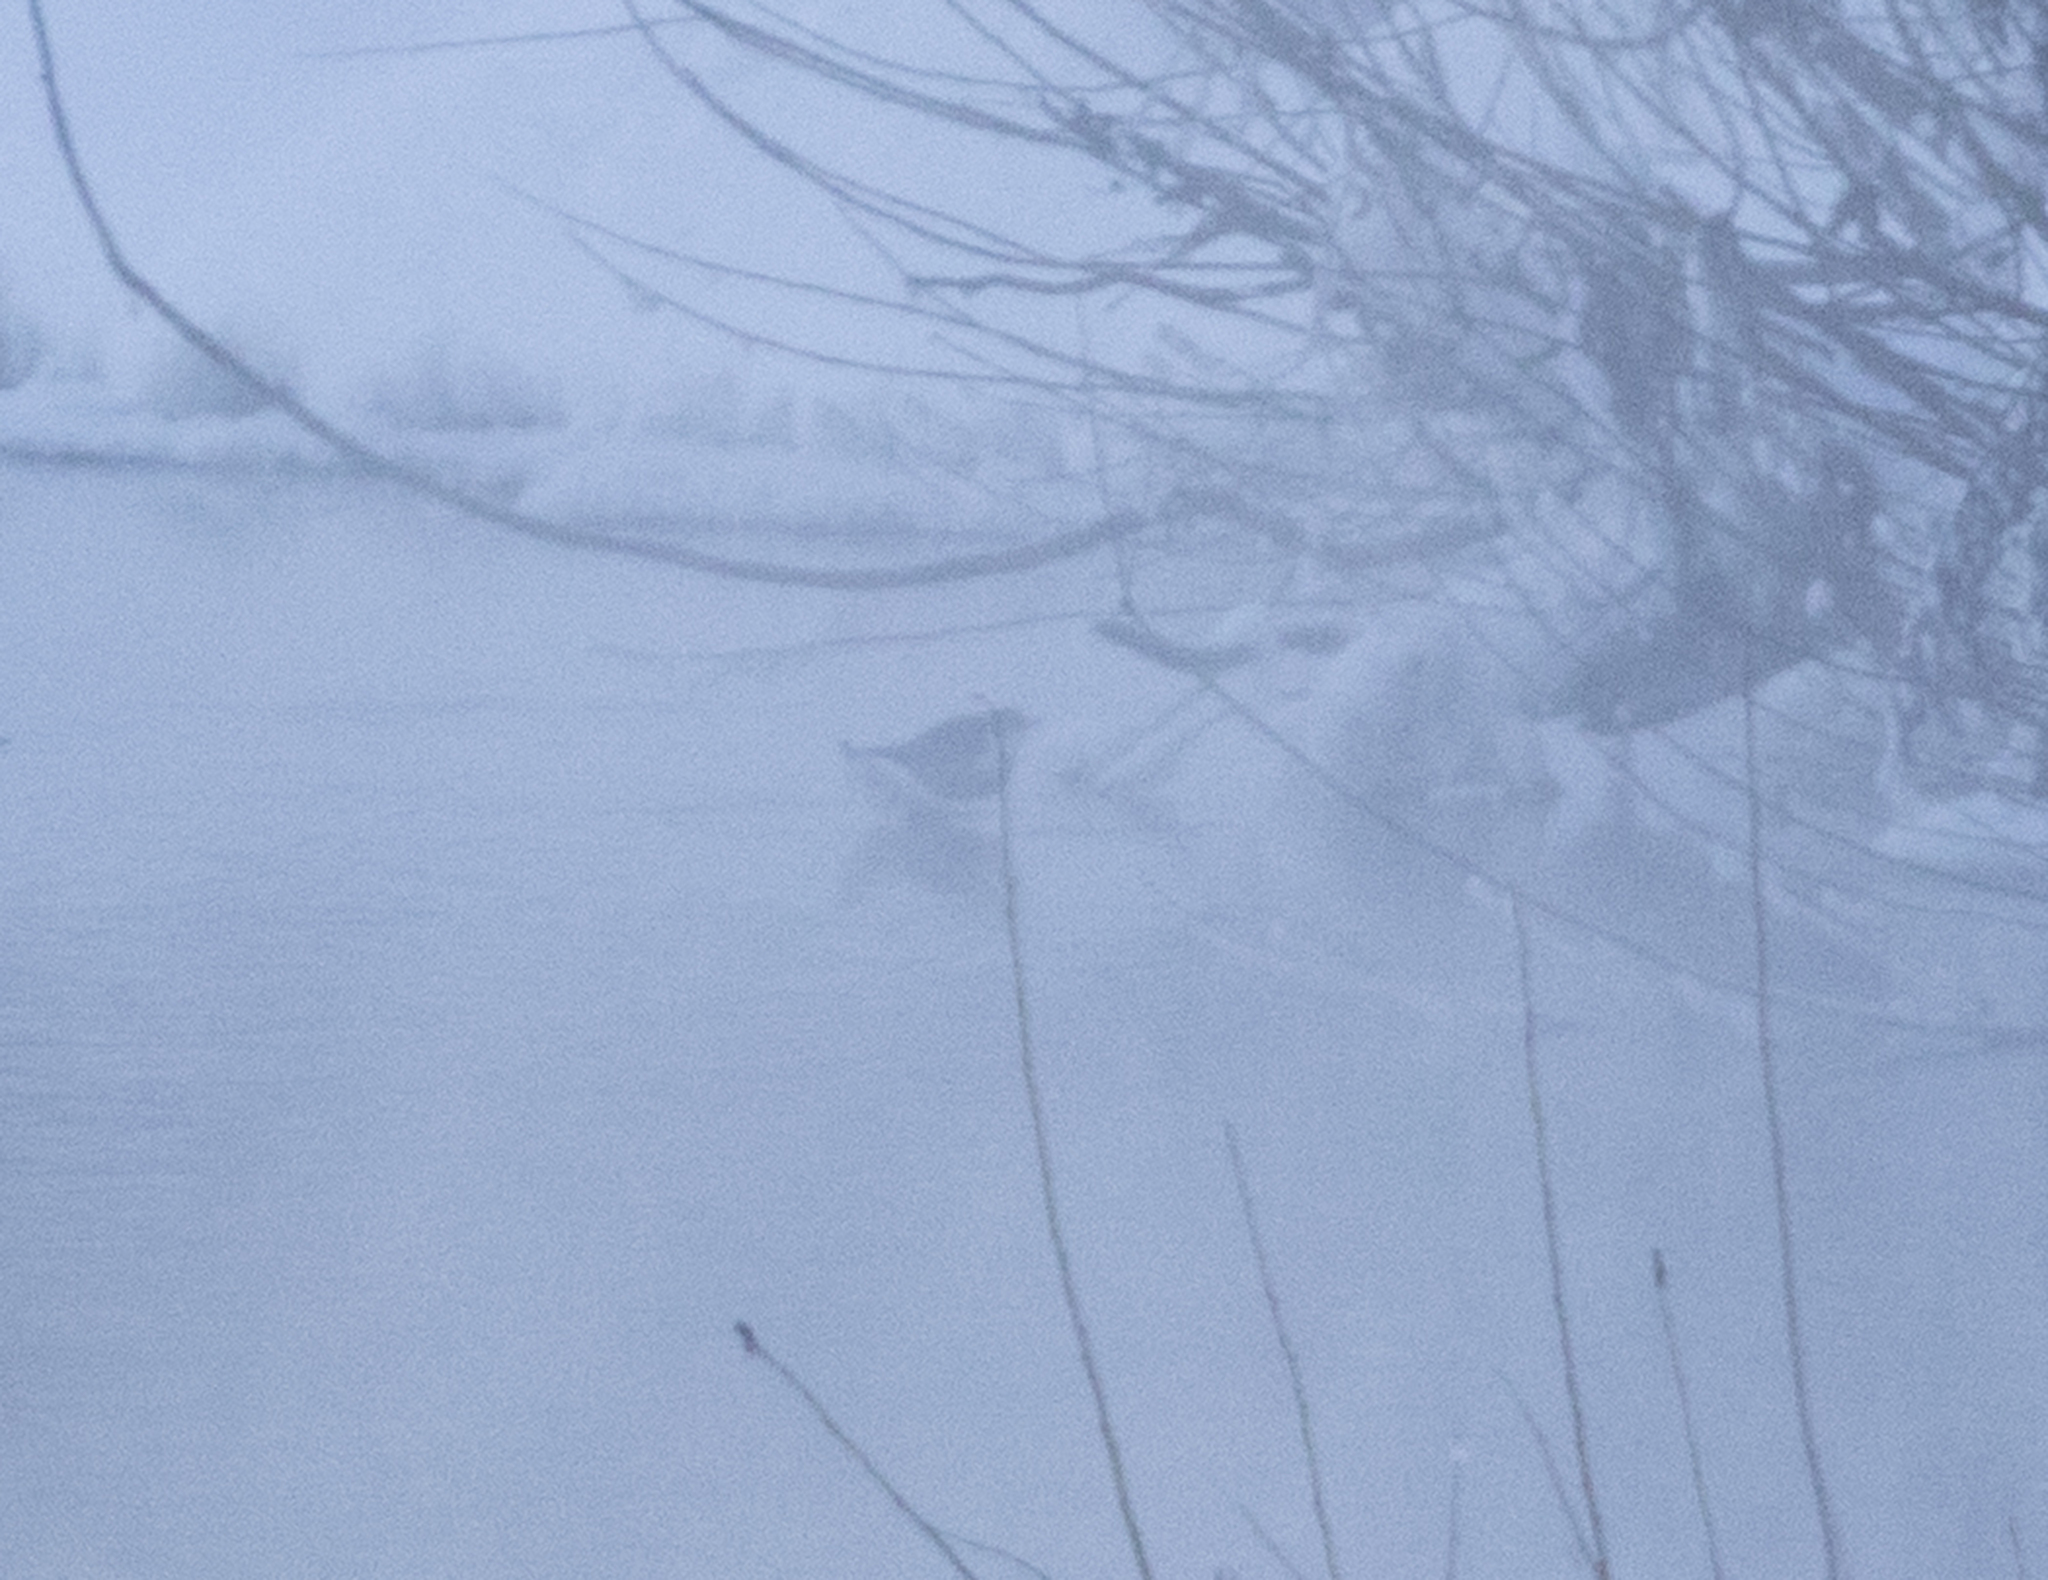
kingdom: Animalia
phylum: Chordata
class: Aves
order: Passeriformes
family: Cinclidae
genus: Cinclus
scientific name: Cinclus cinclus
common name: White-throated dipper
